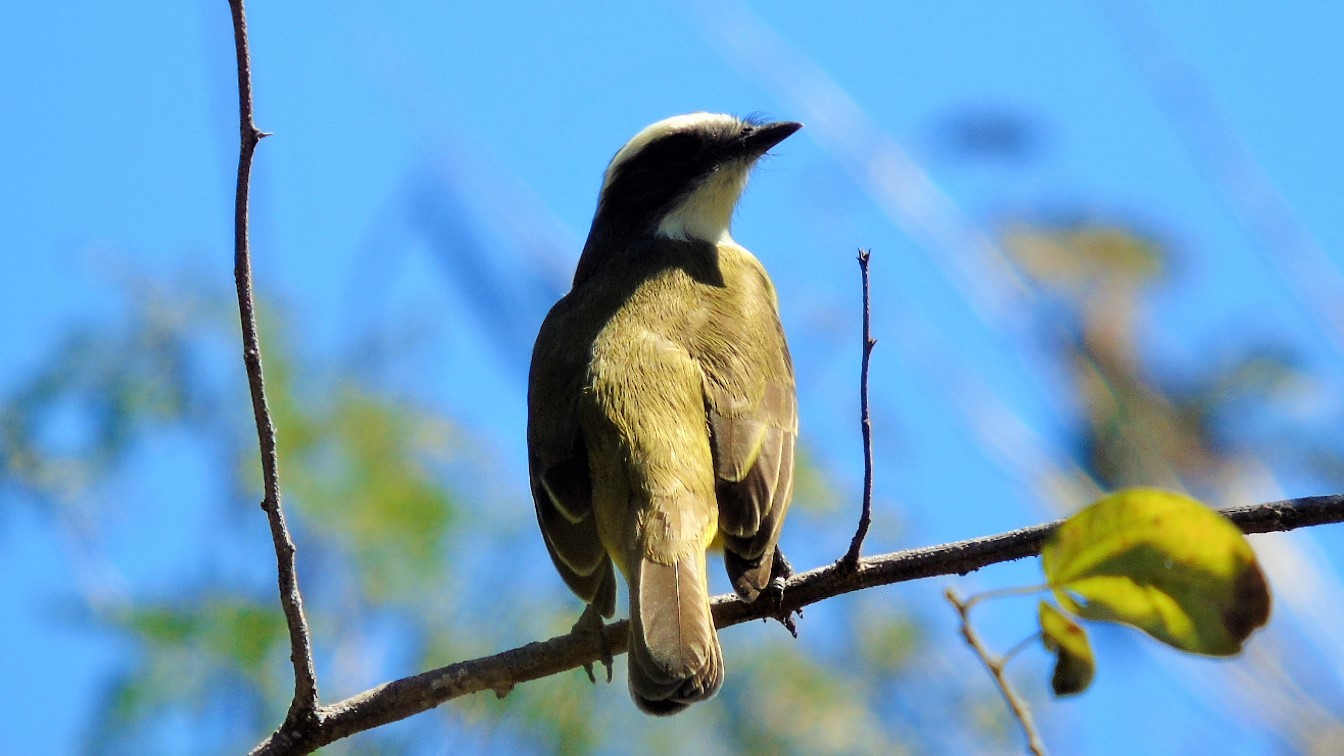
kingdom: Animalia
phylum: Chordata
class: Aves
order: Passeriformes
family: Tyrannidae
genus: Myiozetetes
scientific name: Myiozetetes similis
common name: Social flycatcher
